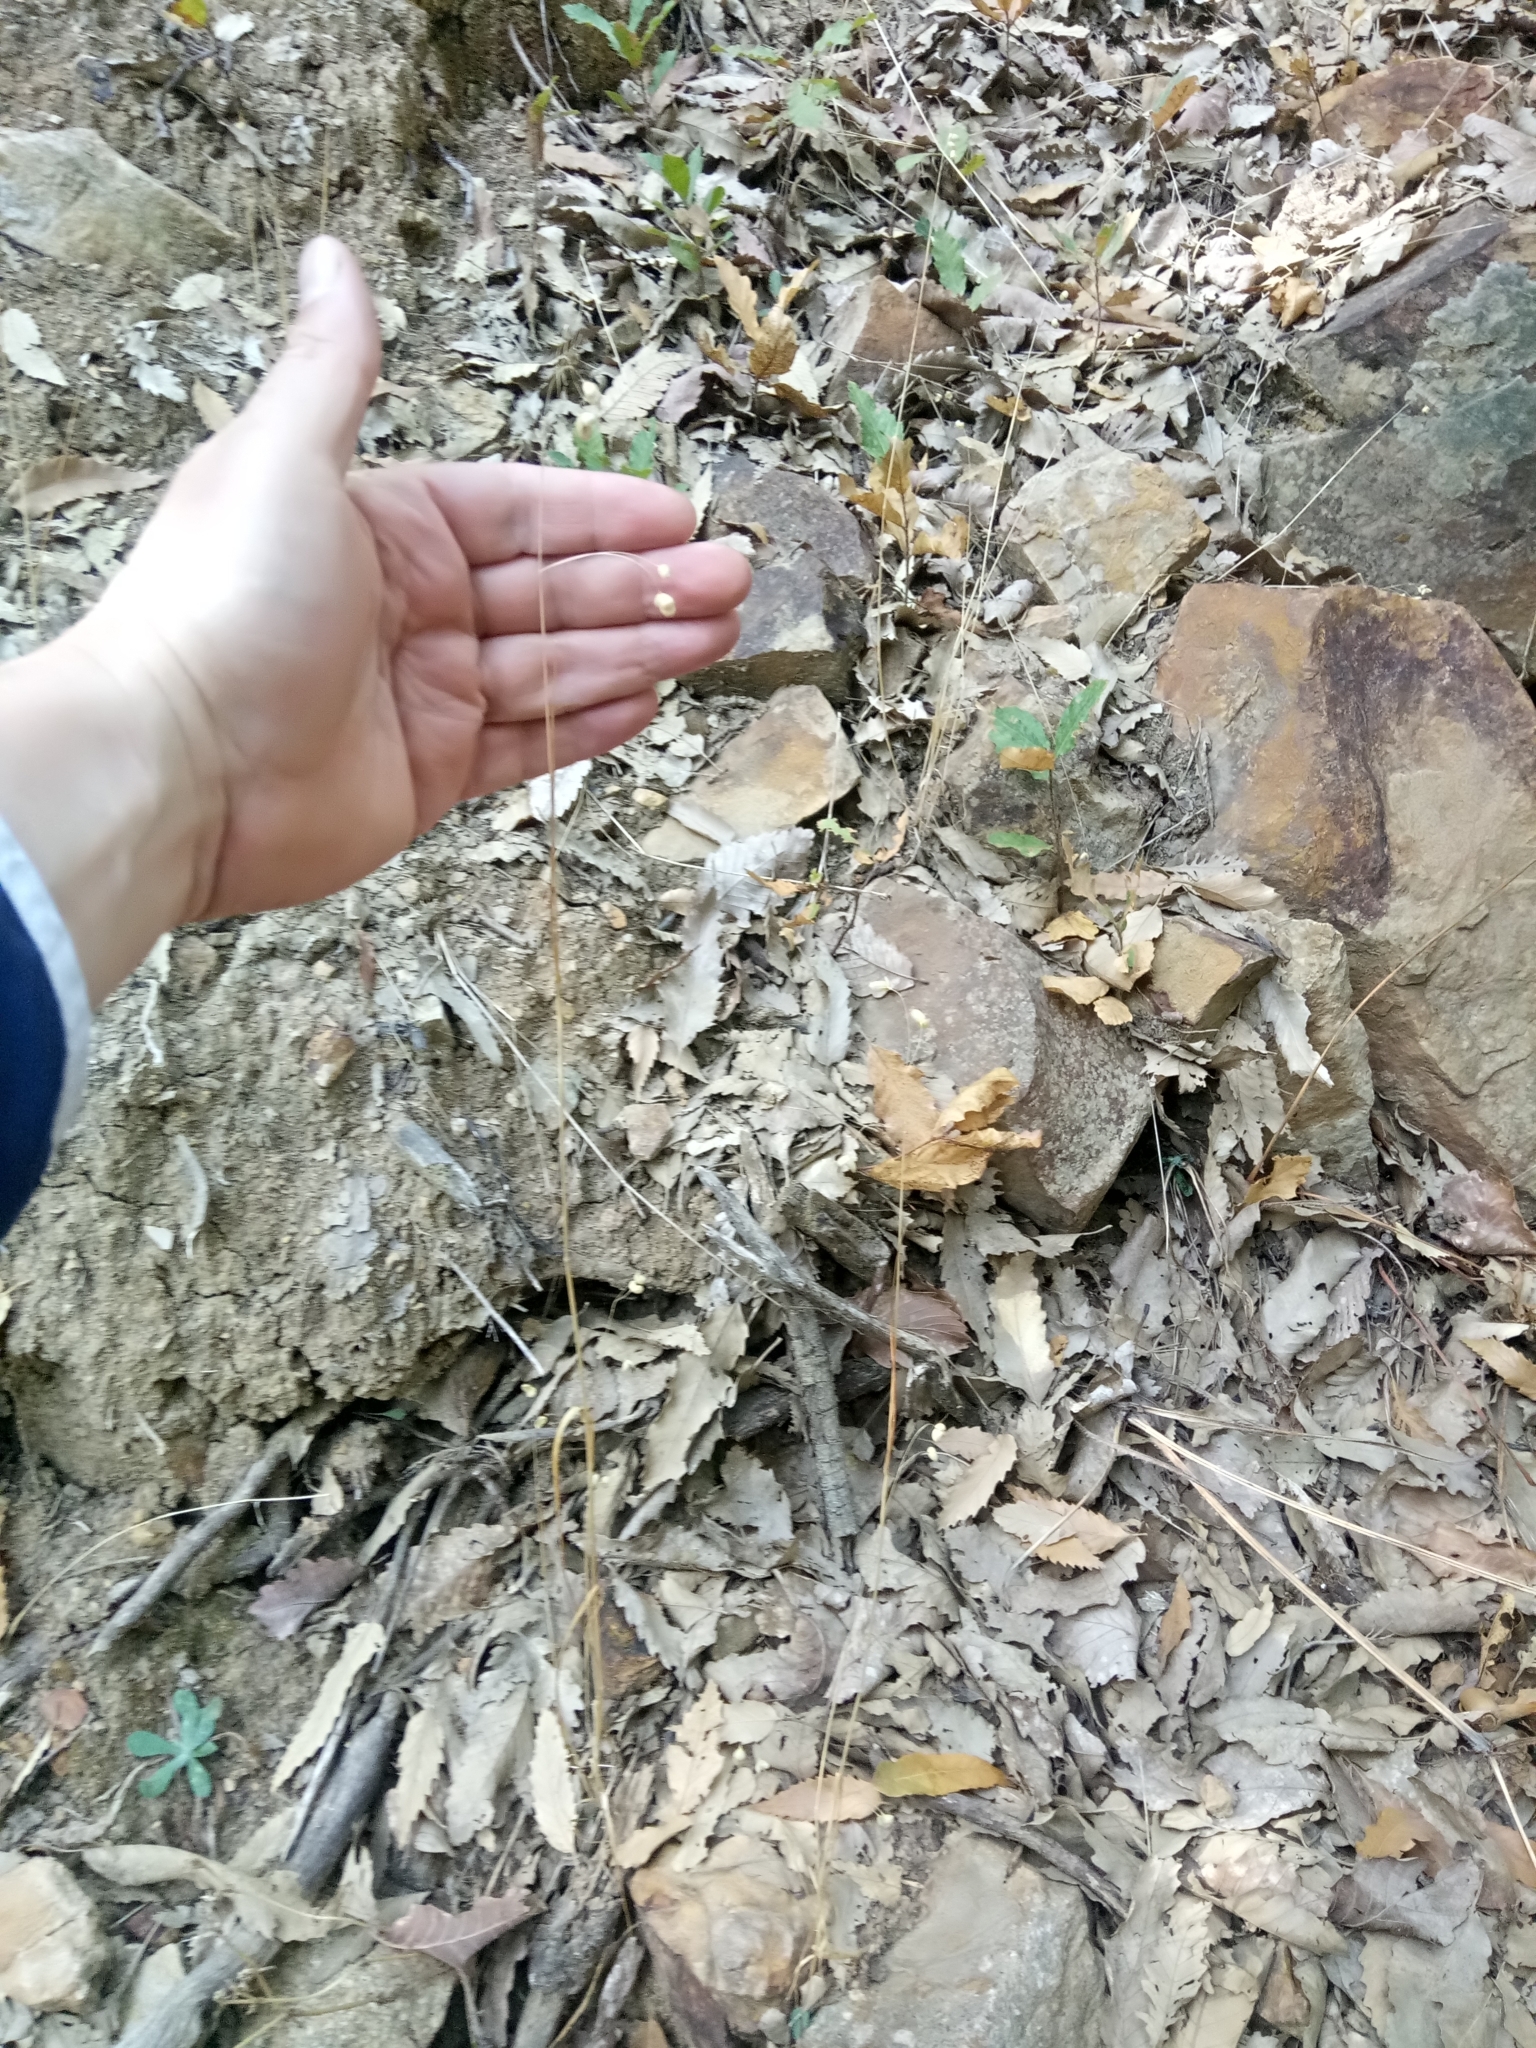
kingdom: Plantae
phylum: Tracheophyta
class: Liliopsida
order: Poales
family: Poaceae
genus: Briza
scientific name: Briza maxima
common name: Big quakinggrass
